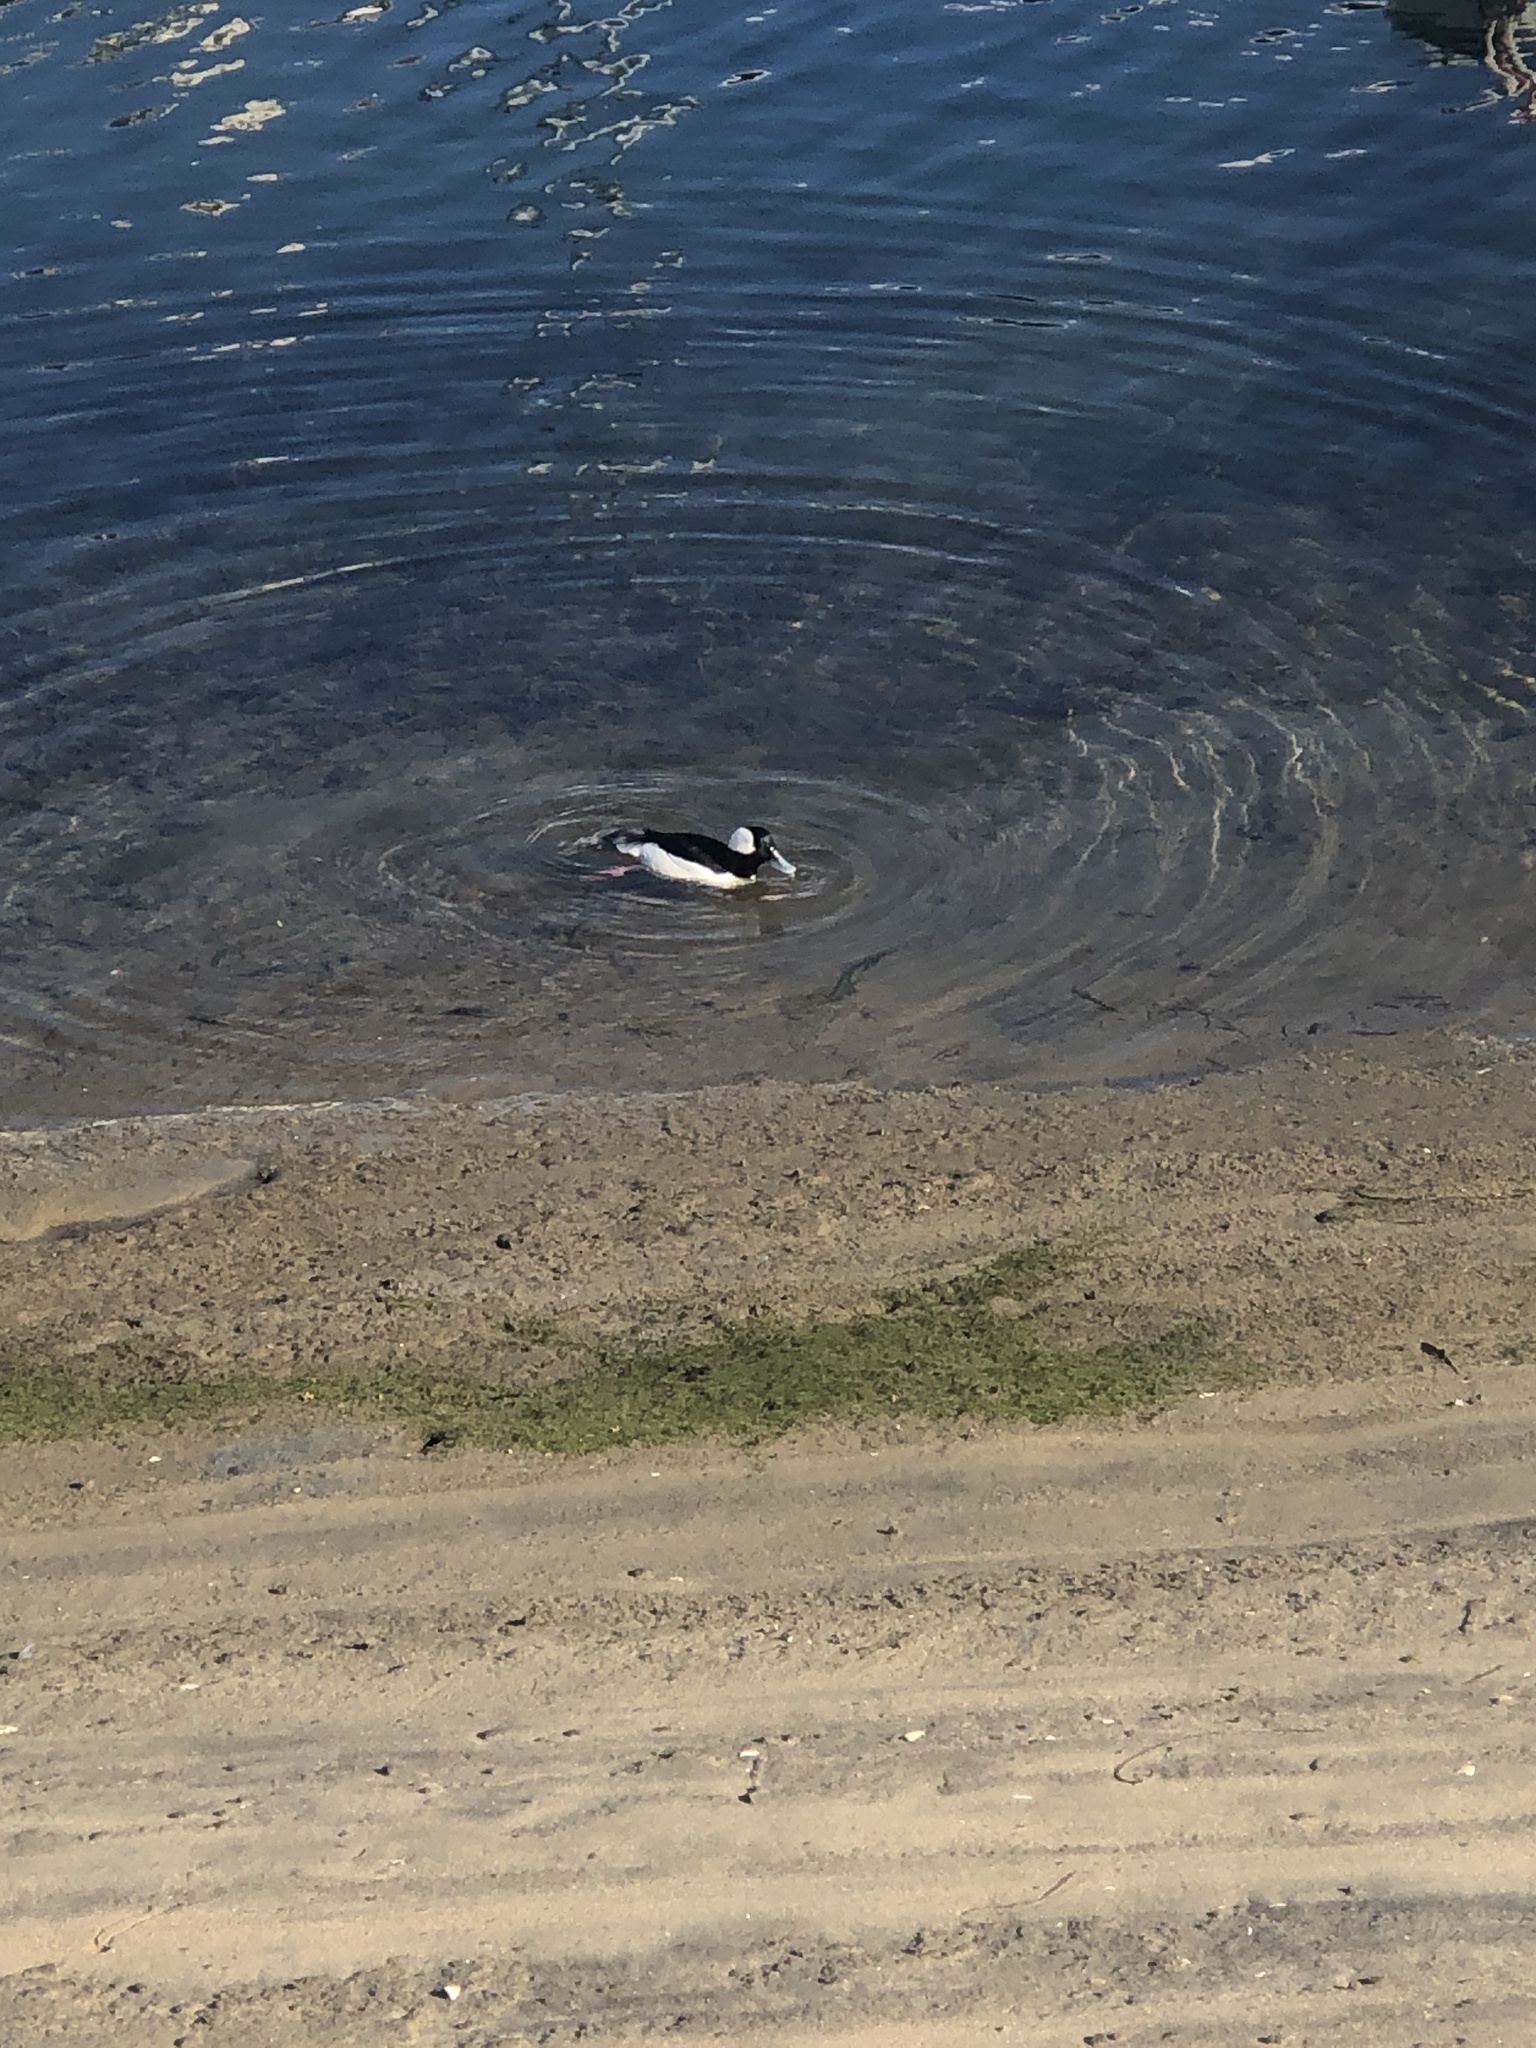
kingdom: Animalia
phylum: Chordata
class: Aves
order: Anseriformes
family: Anatidae
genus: Bucephala
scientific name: Bucephala albeola
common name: Bufflehead
